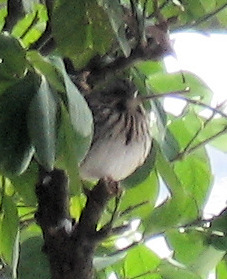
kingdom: Animalia
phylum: Chordata
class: Aves
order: Passeriformes
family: Passerellidae
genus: Melospiza
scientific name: Melospiza melodia
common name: Song sparrow
